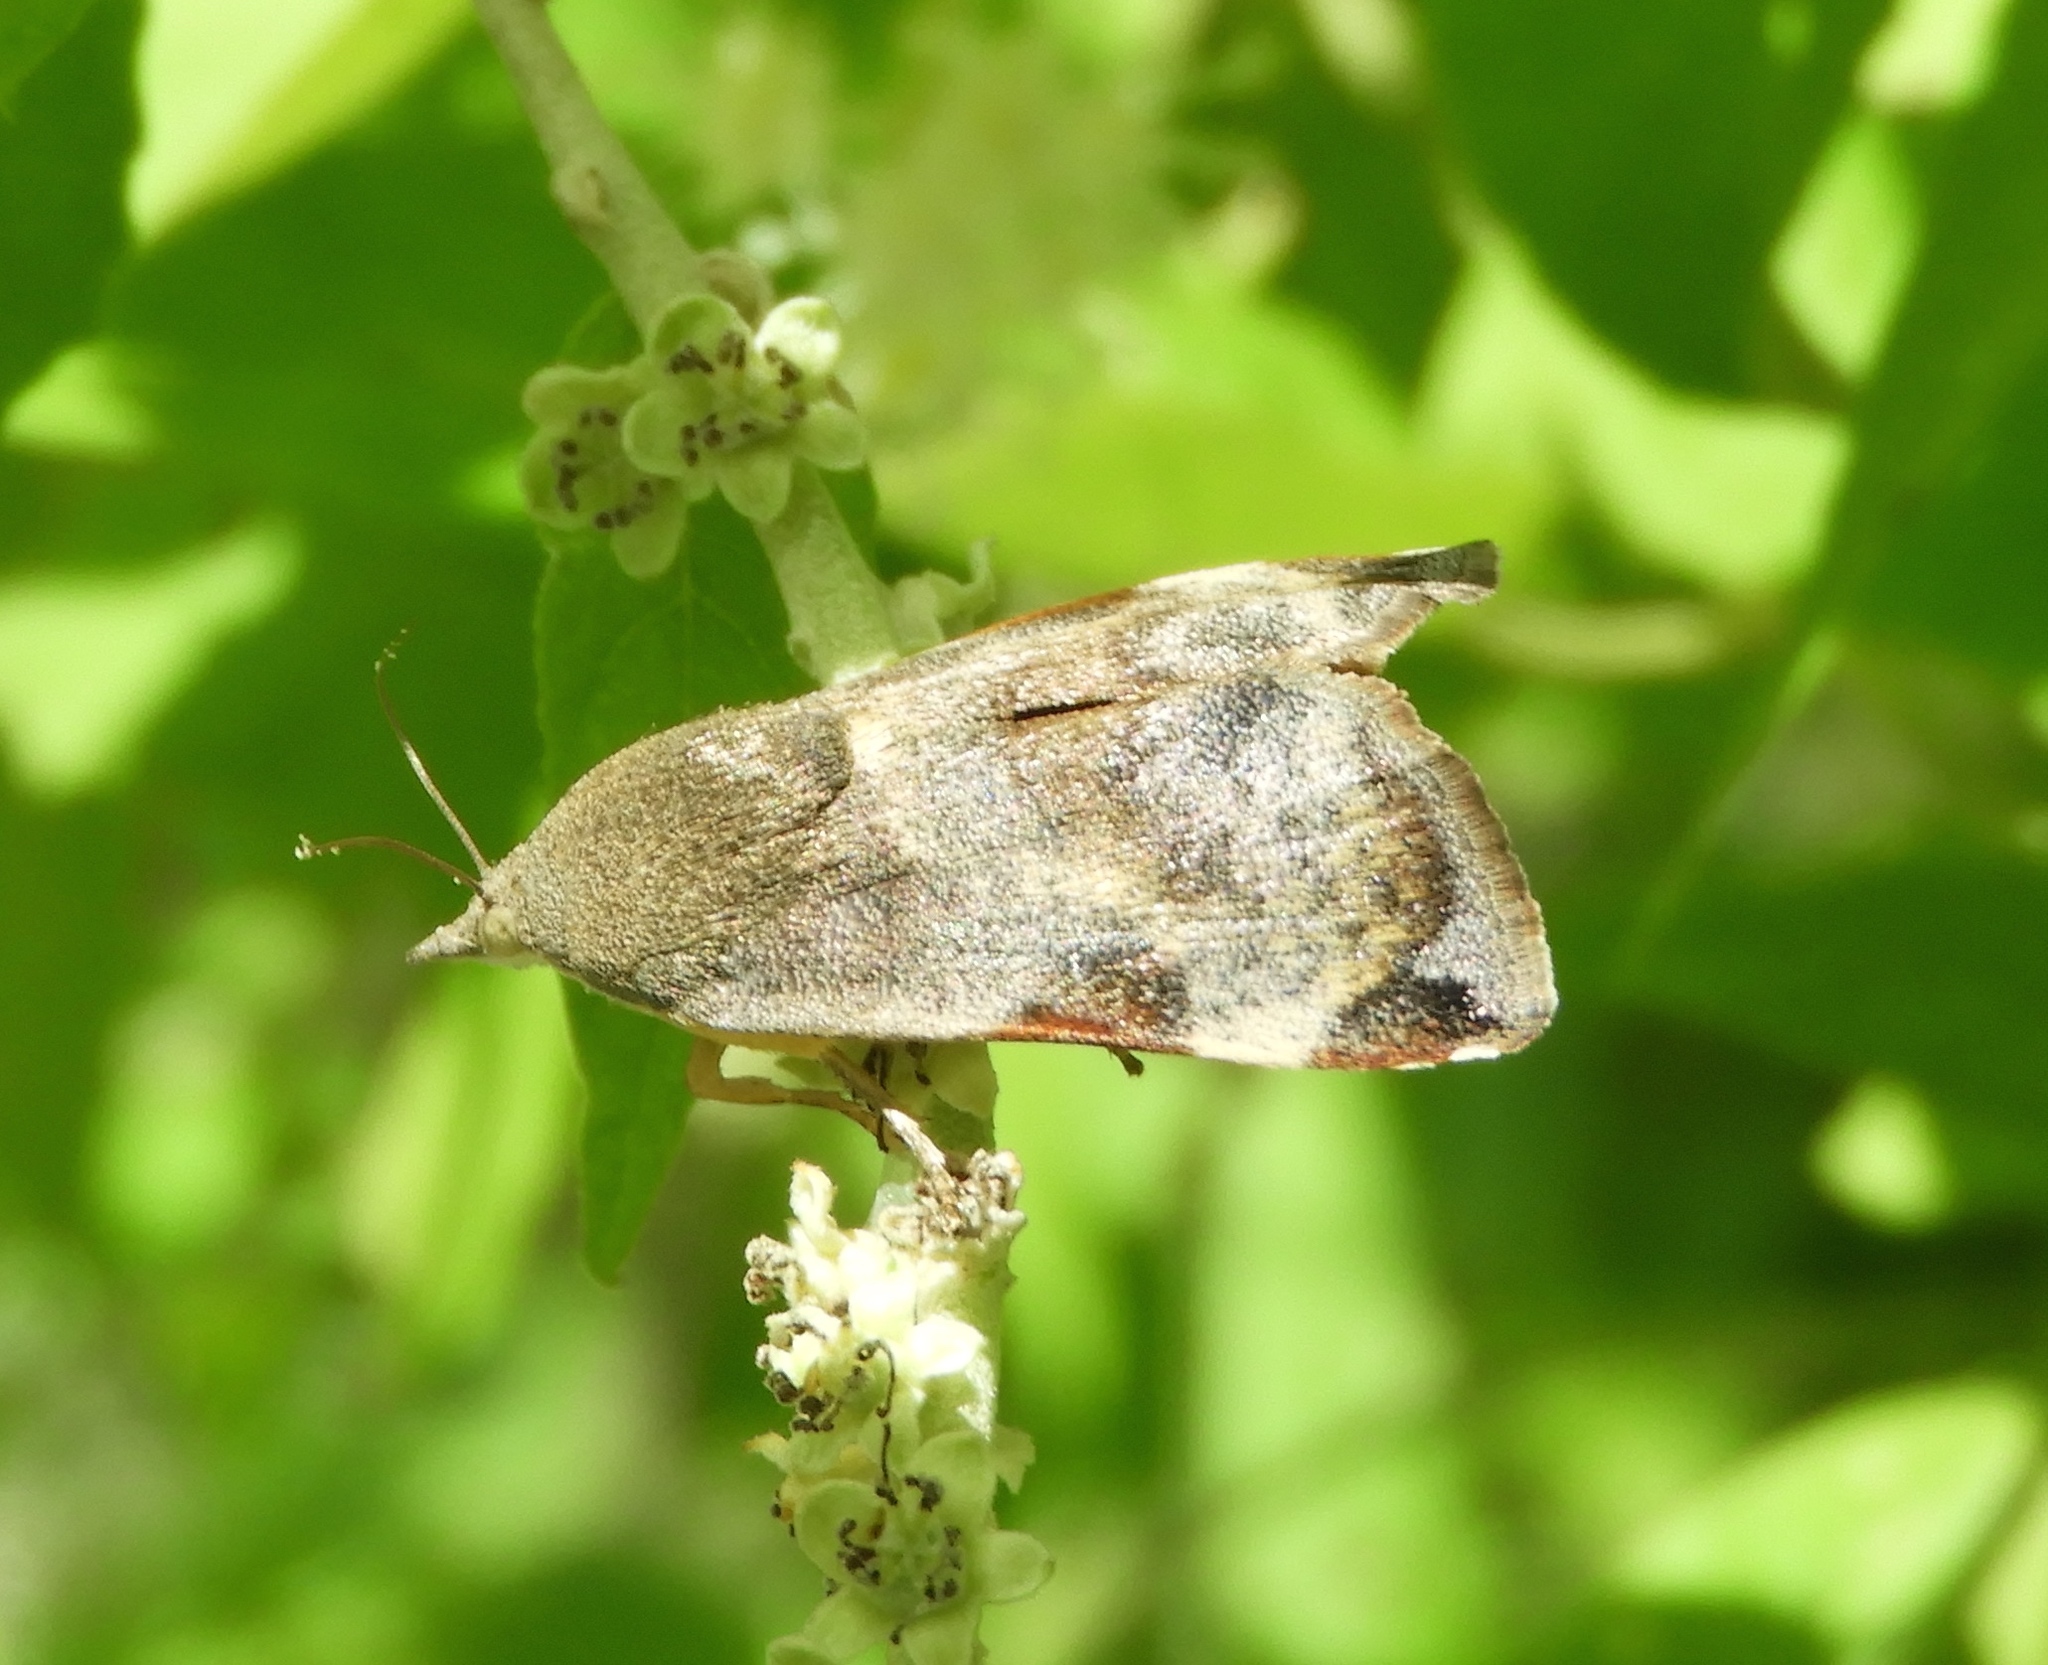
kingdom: Animalia
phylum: Arthropoda
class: Insecta
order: Lepidoptera
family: Hyblaeidae
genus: Hyblaea
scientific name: Hyblaea
